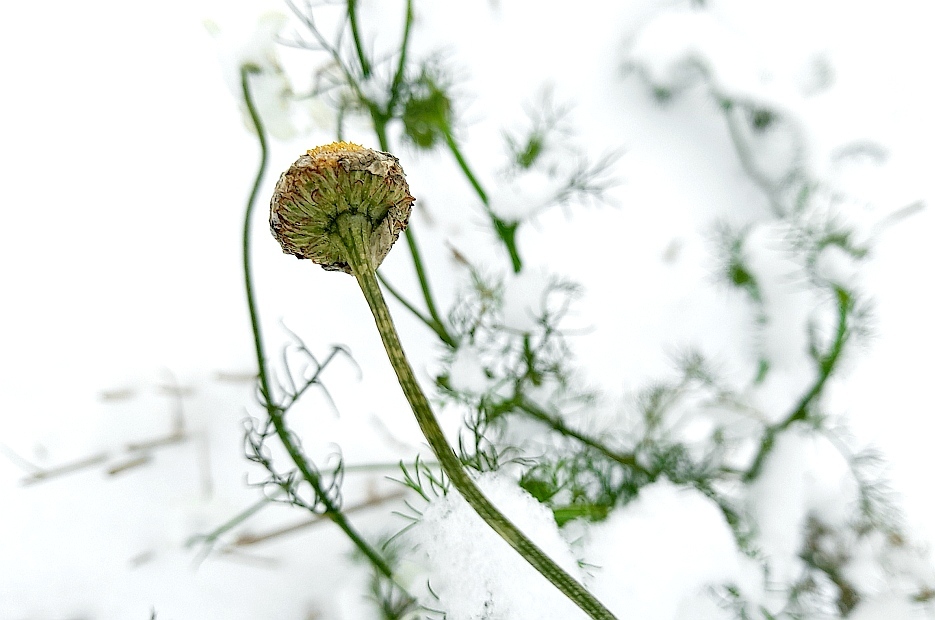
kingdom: Plantae
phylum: Tracheophyta
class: Magnoliopsida
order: Asterales
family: Asteraceae
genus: Tripleurospermum
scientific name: Tripleurospermum inodorum
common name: Scentless mayweed
